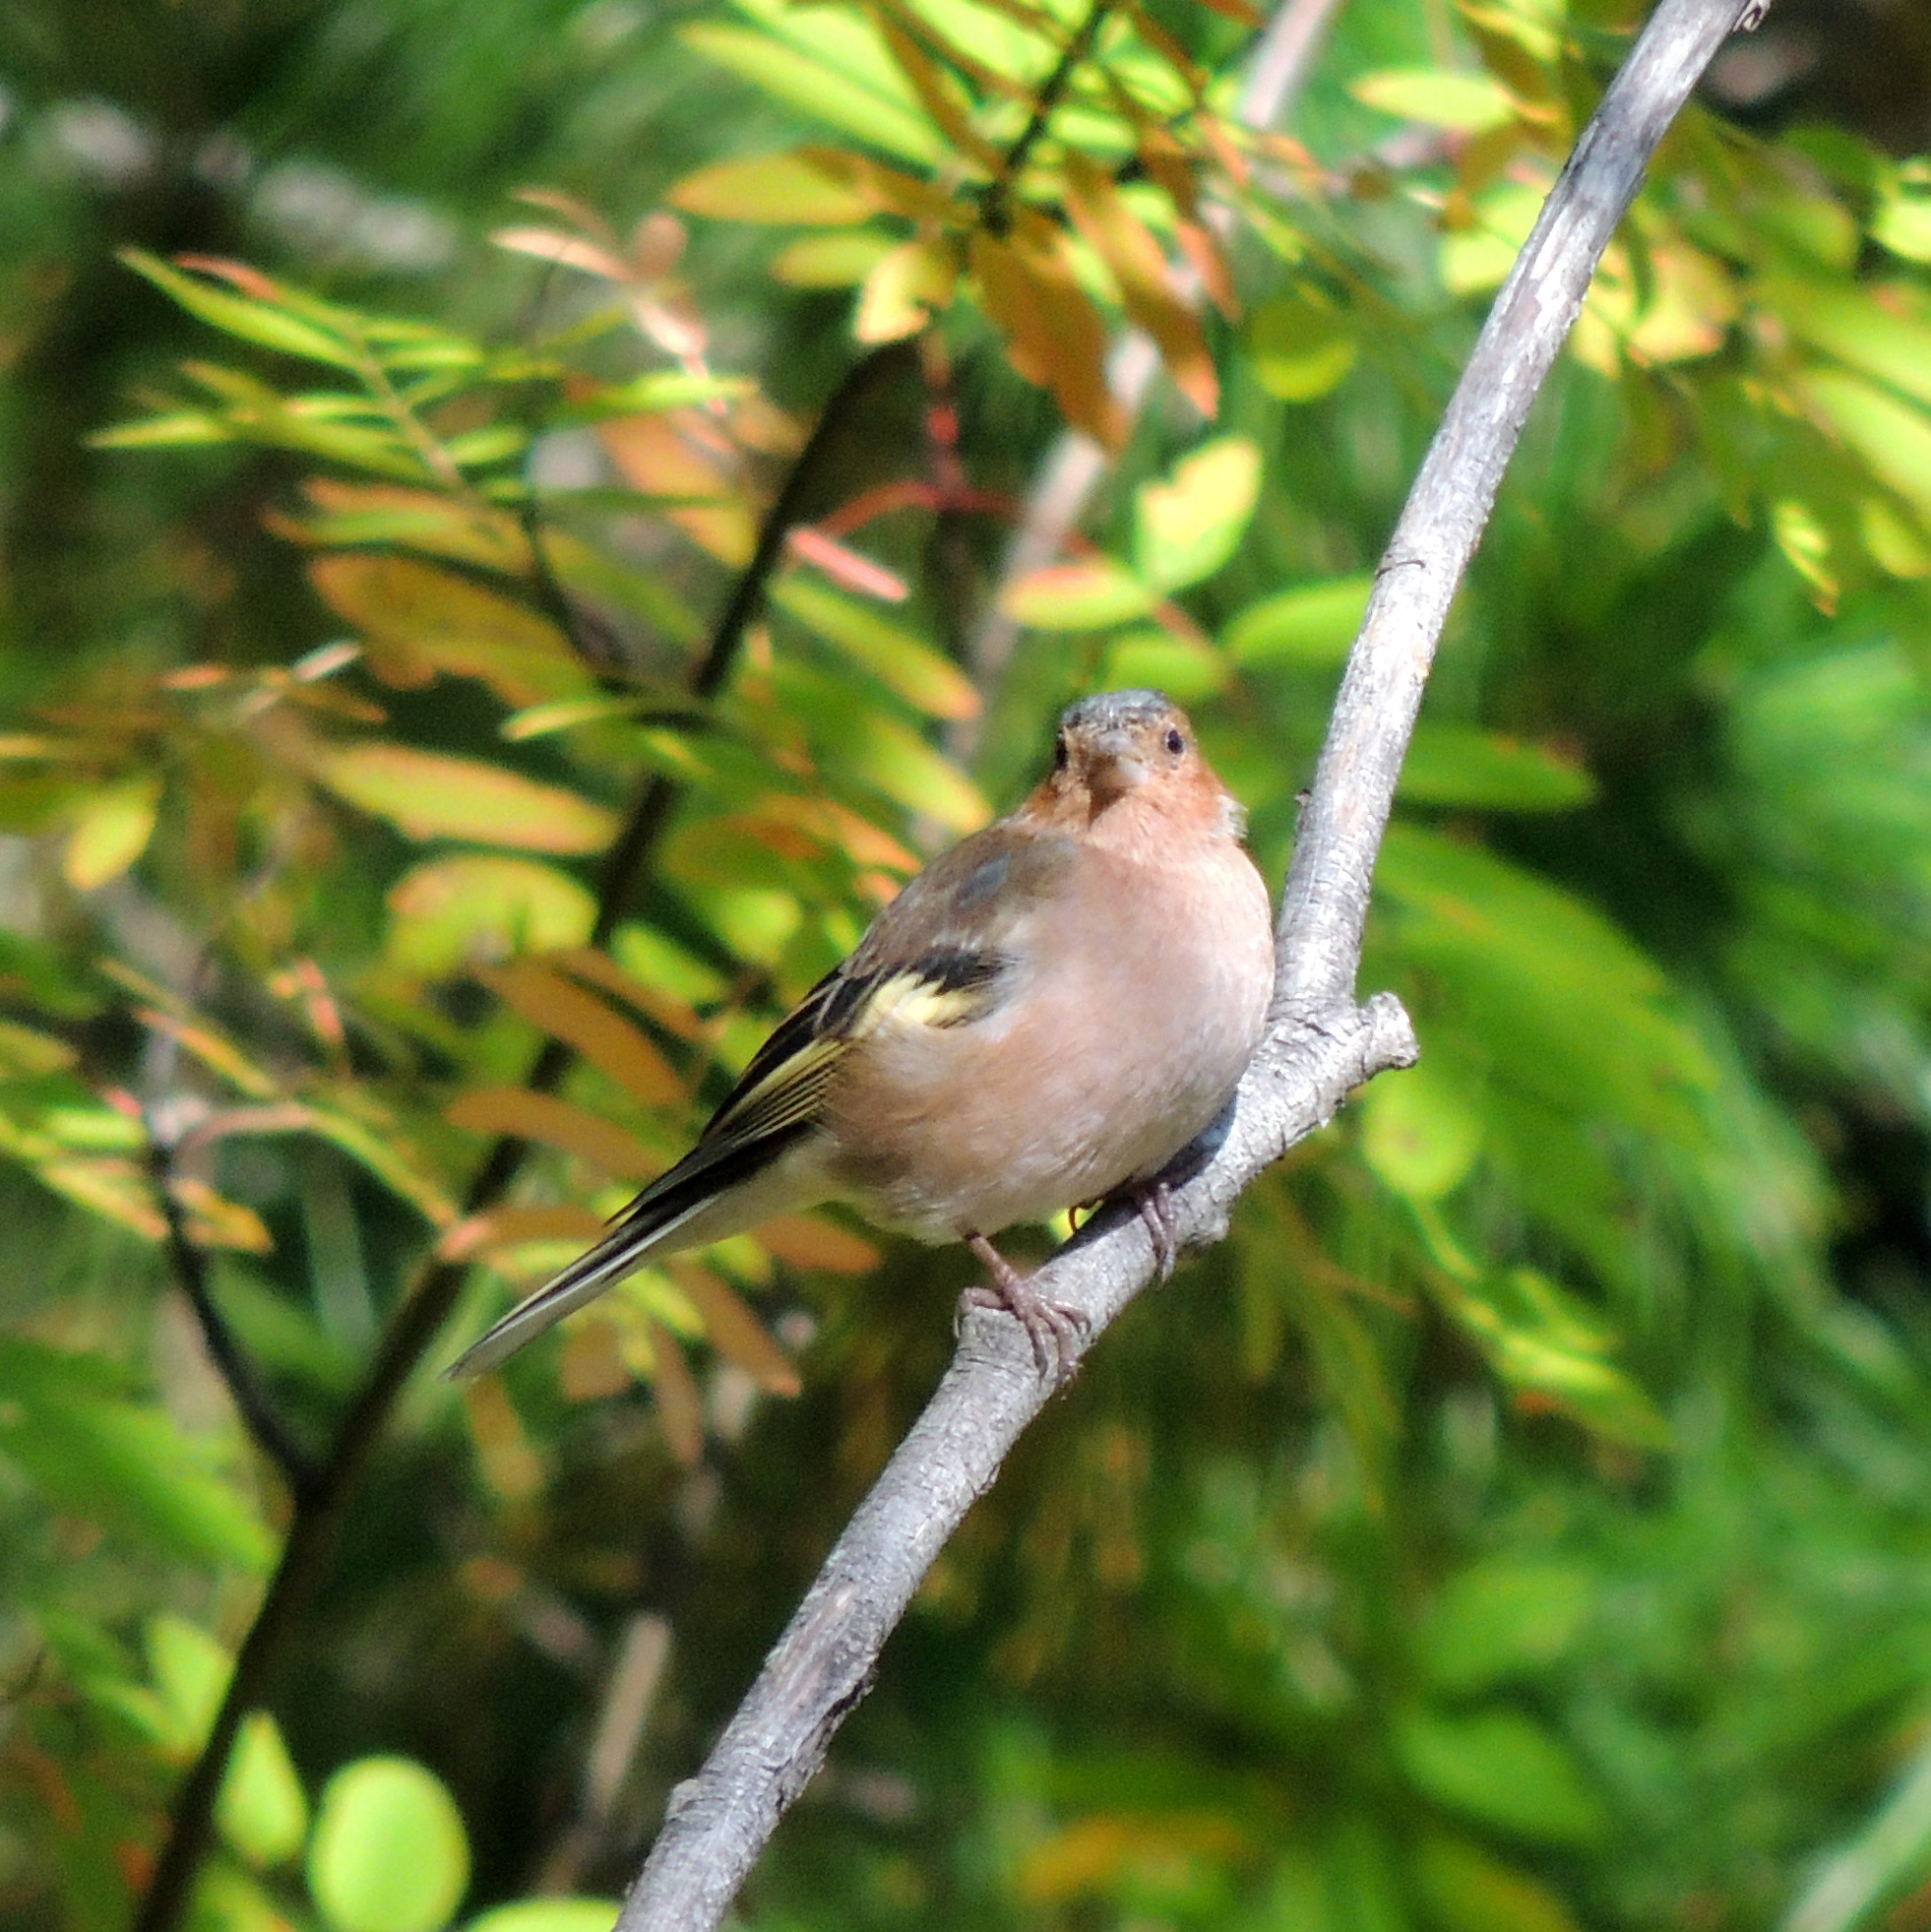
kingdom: Animalia
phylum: Chordata
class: Aves
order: Passeriformes
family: Fringillidae
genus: Fringilla
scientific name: Fringilla coelebs
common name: Common chaffinch
